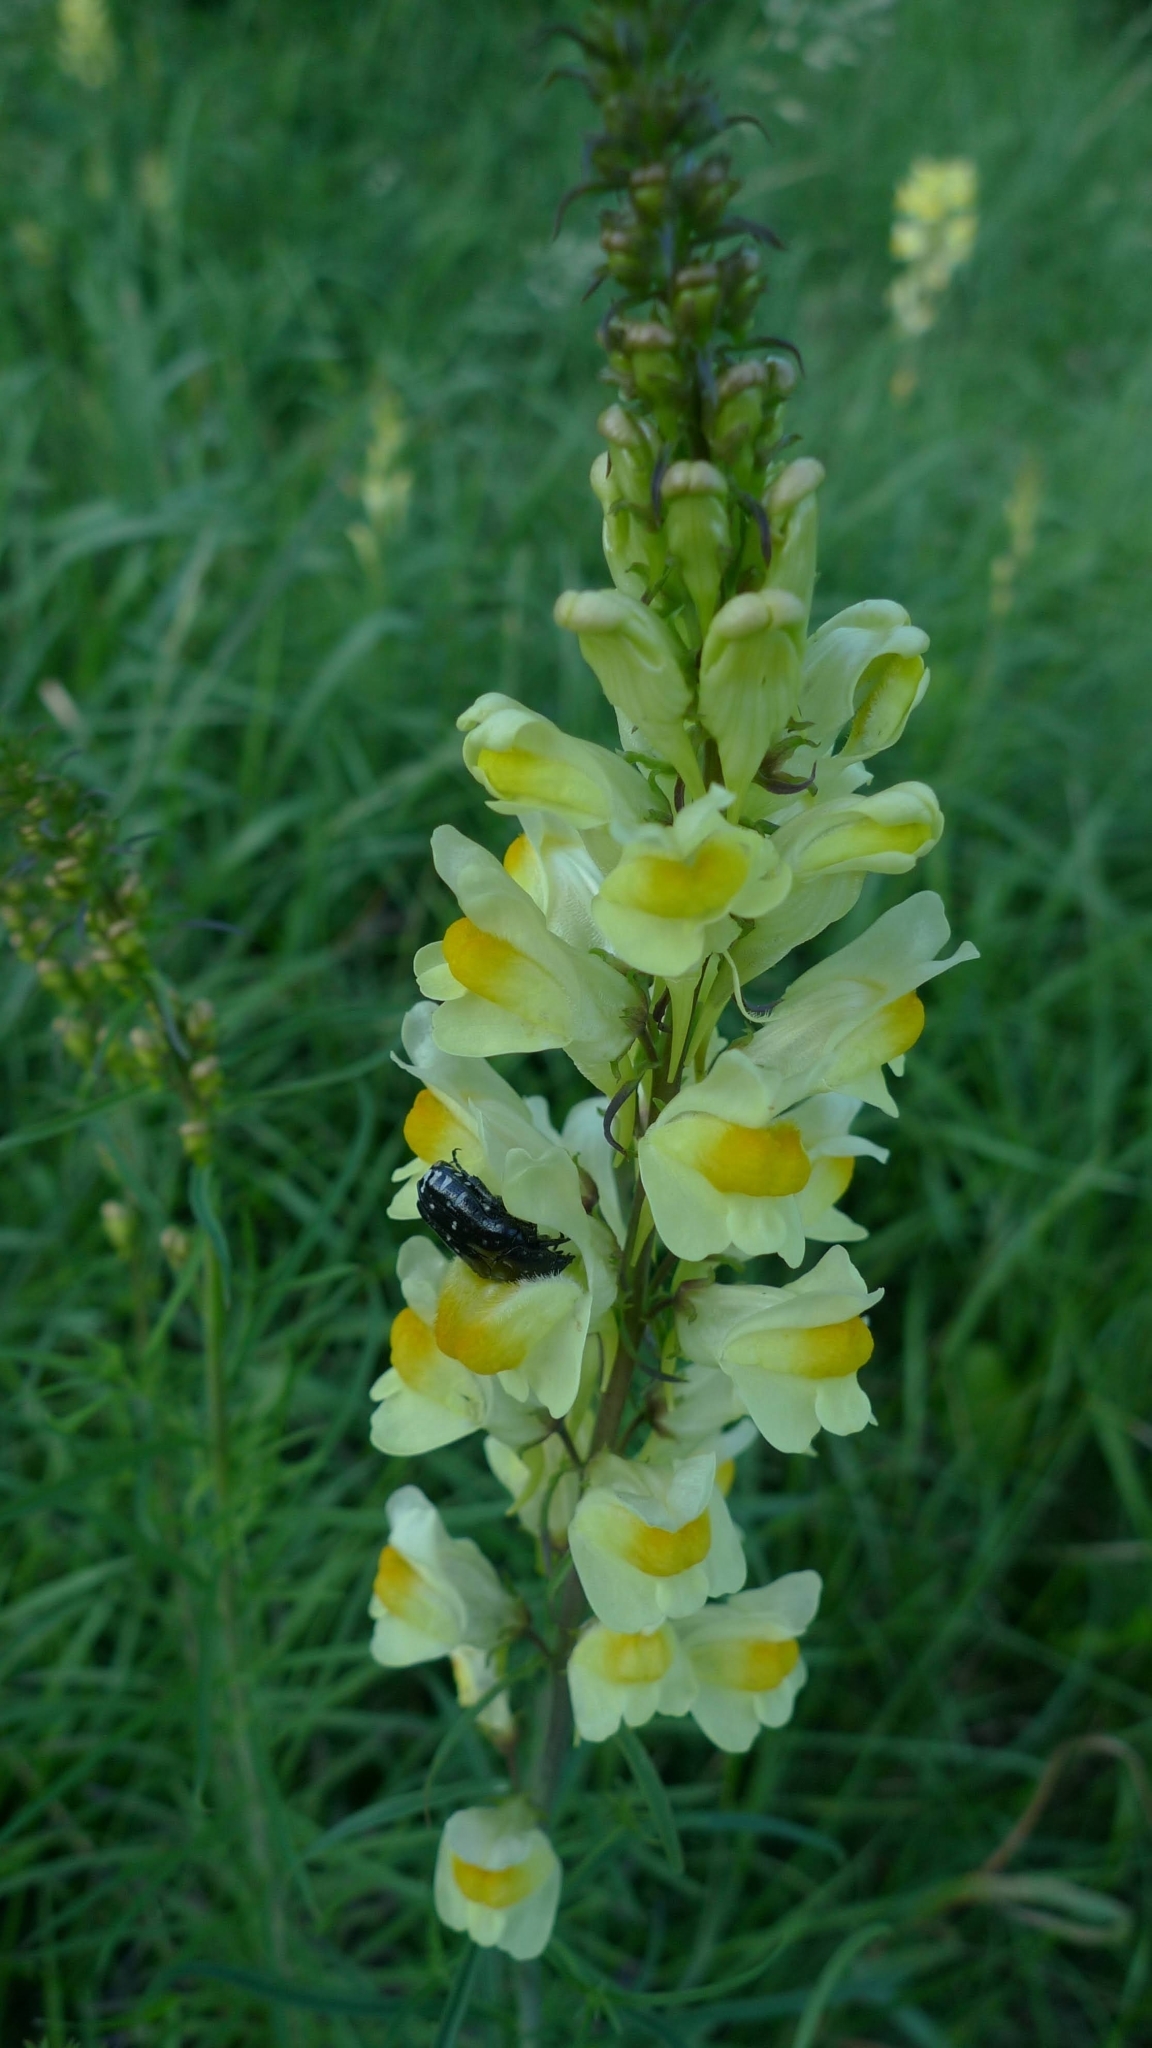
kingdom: Plantae
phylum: Tracheophyta
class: Magnoliopsida
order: Lamiales
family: Plantaginaceae
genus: Linaria
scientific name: Linaria vulgaris
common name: Butter and eggs
